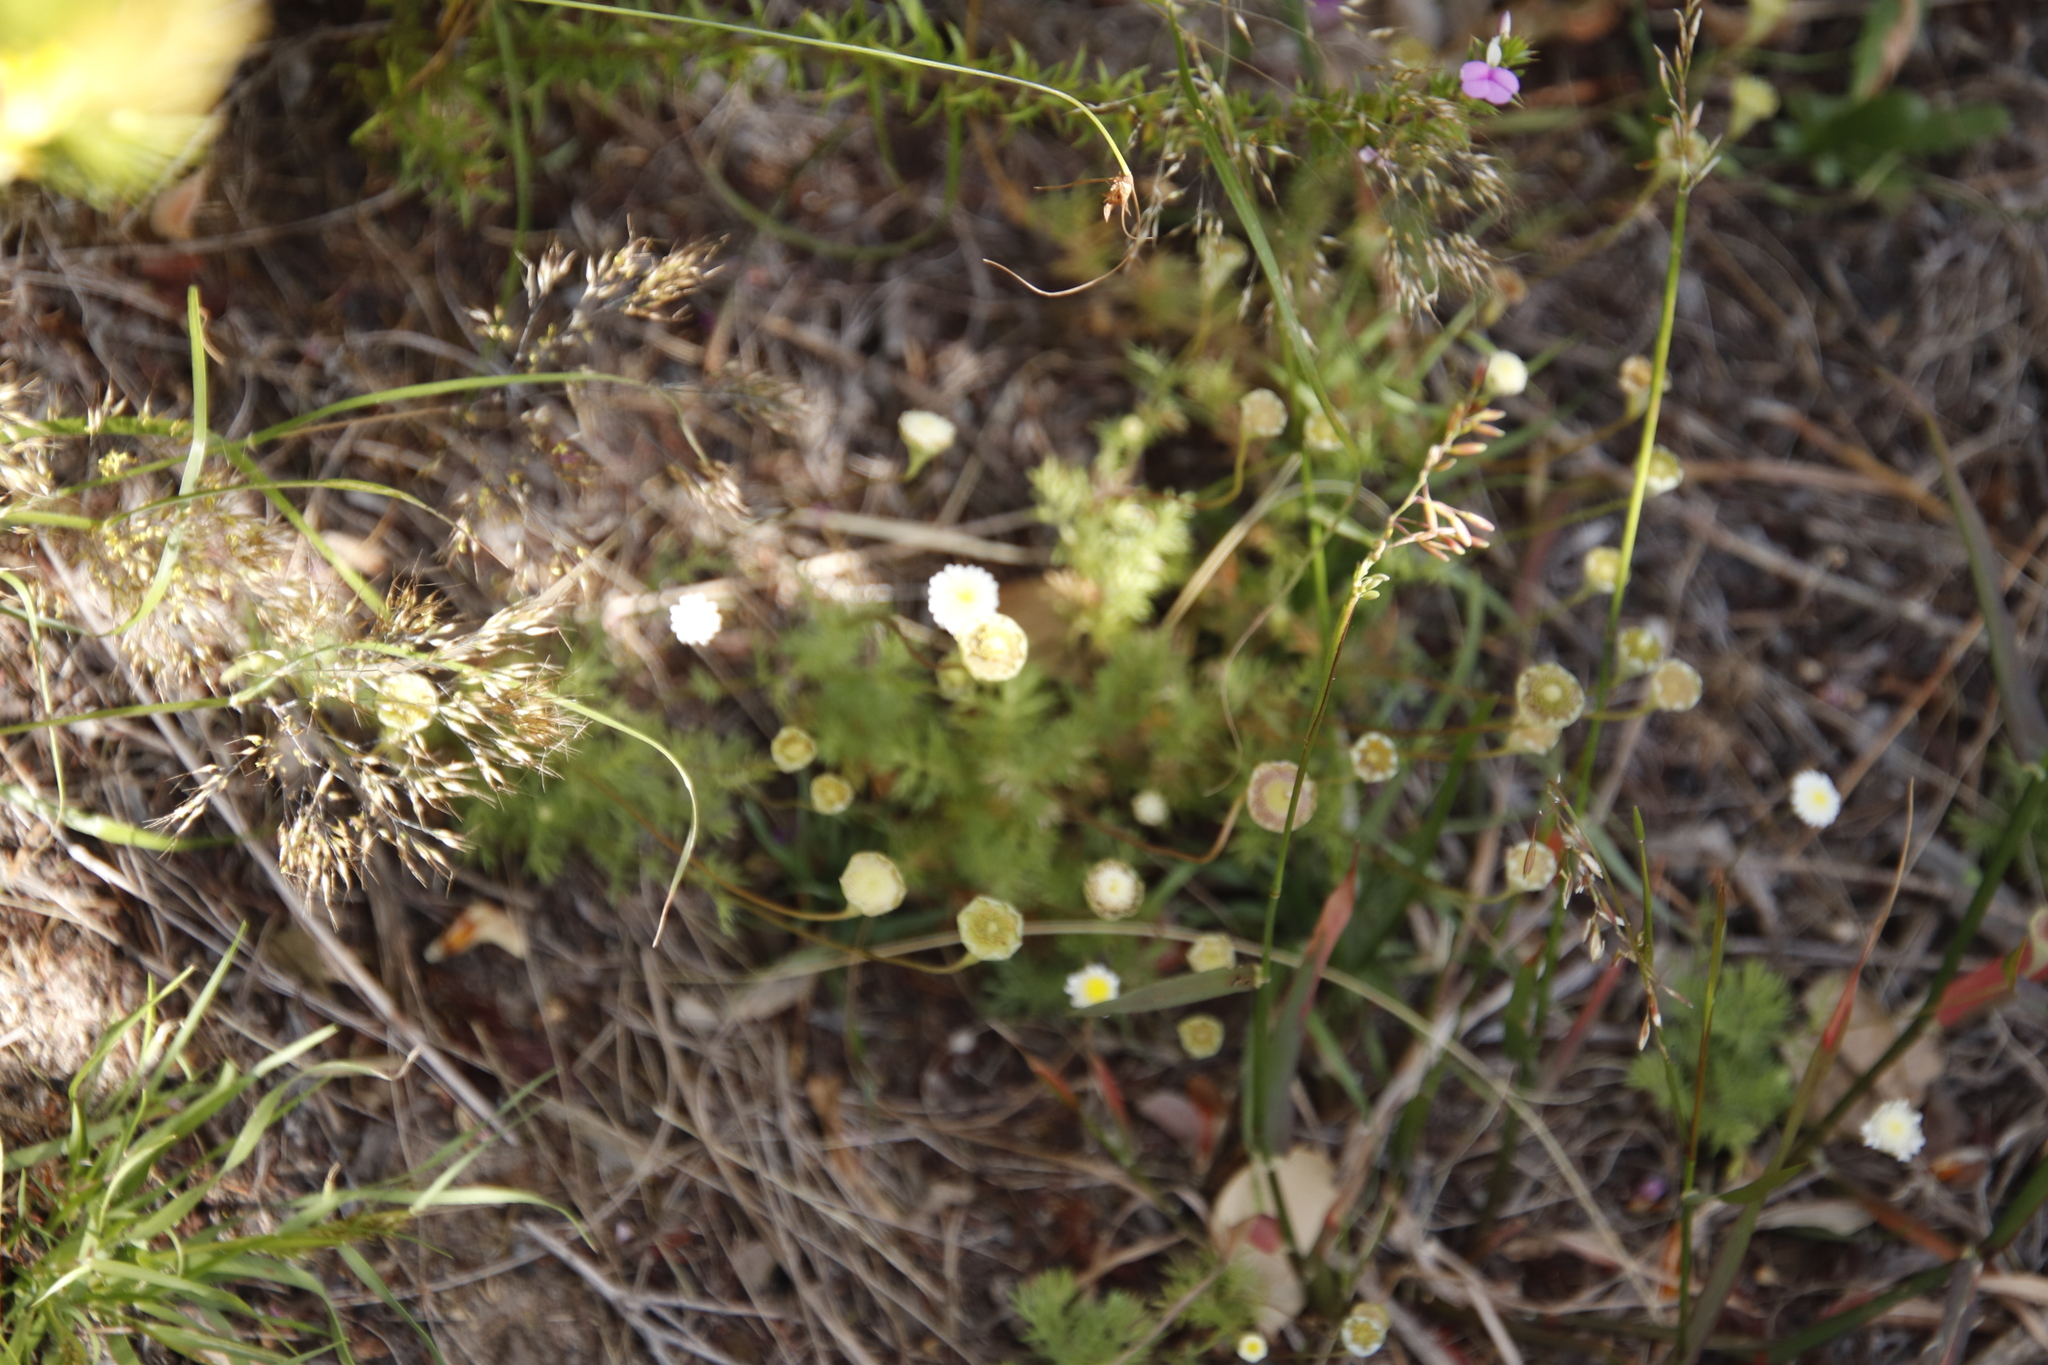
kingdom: Plantae
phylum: Tracheophyta
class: Magnoliopsida
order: Asterales
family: Asteraceae
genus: Cotula
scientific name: Cotula turbinata
